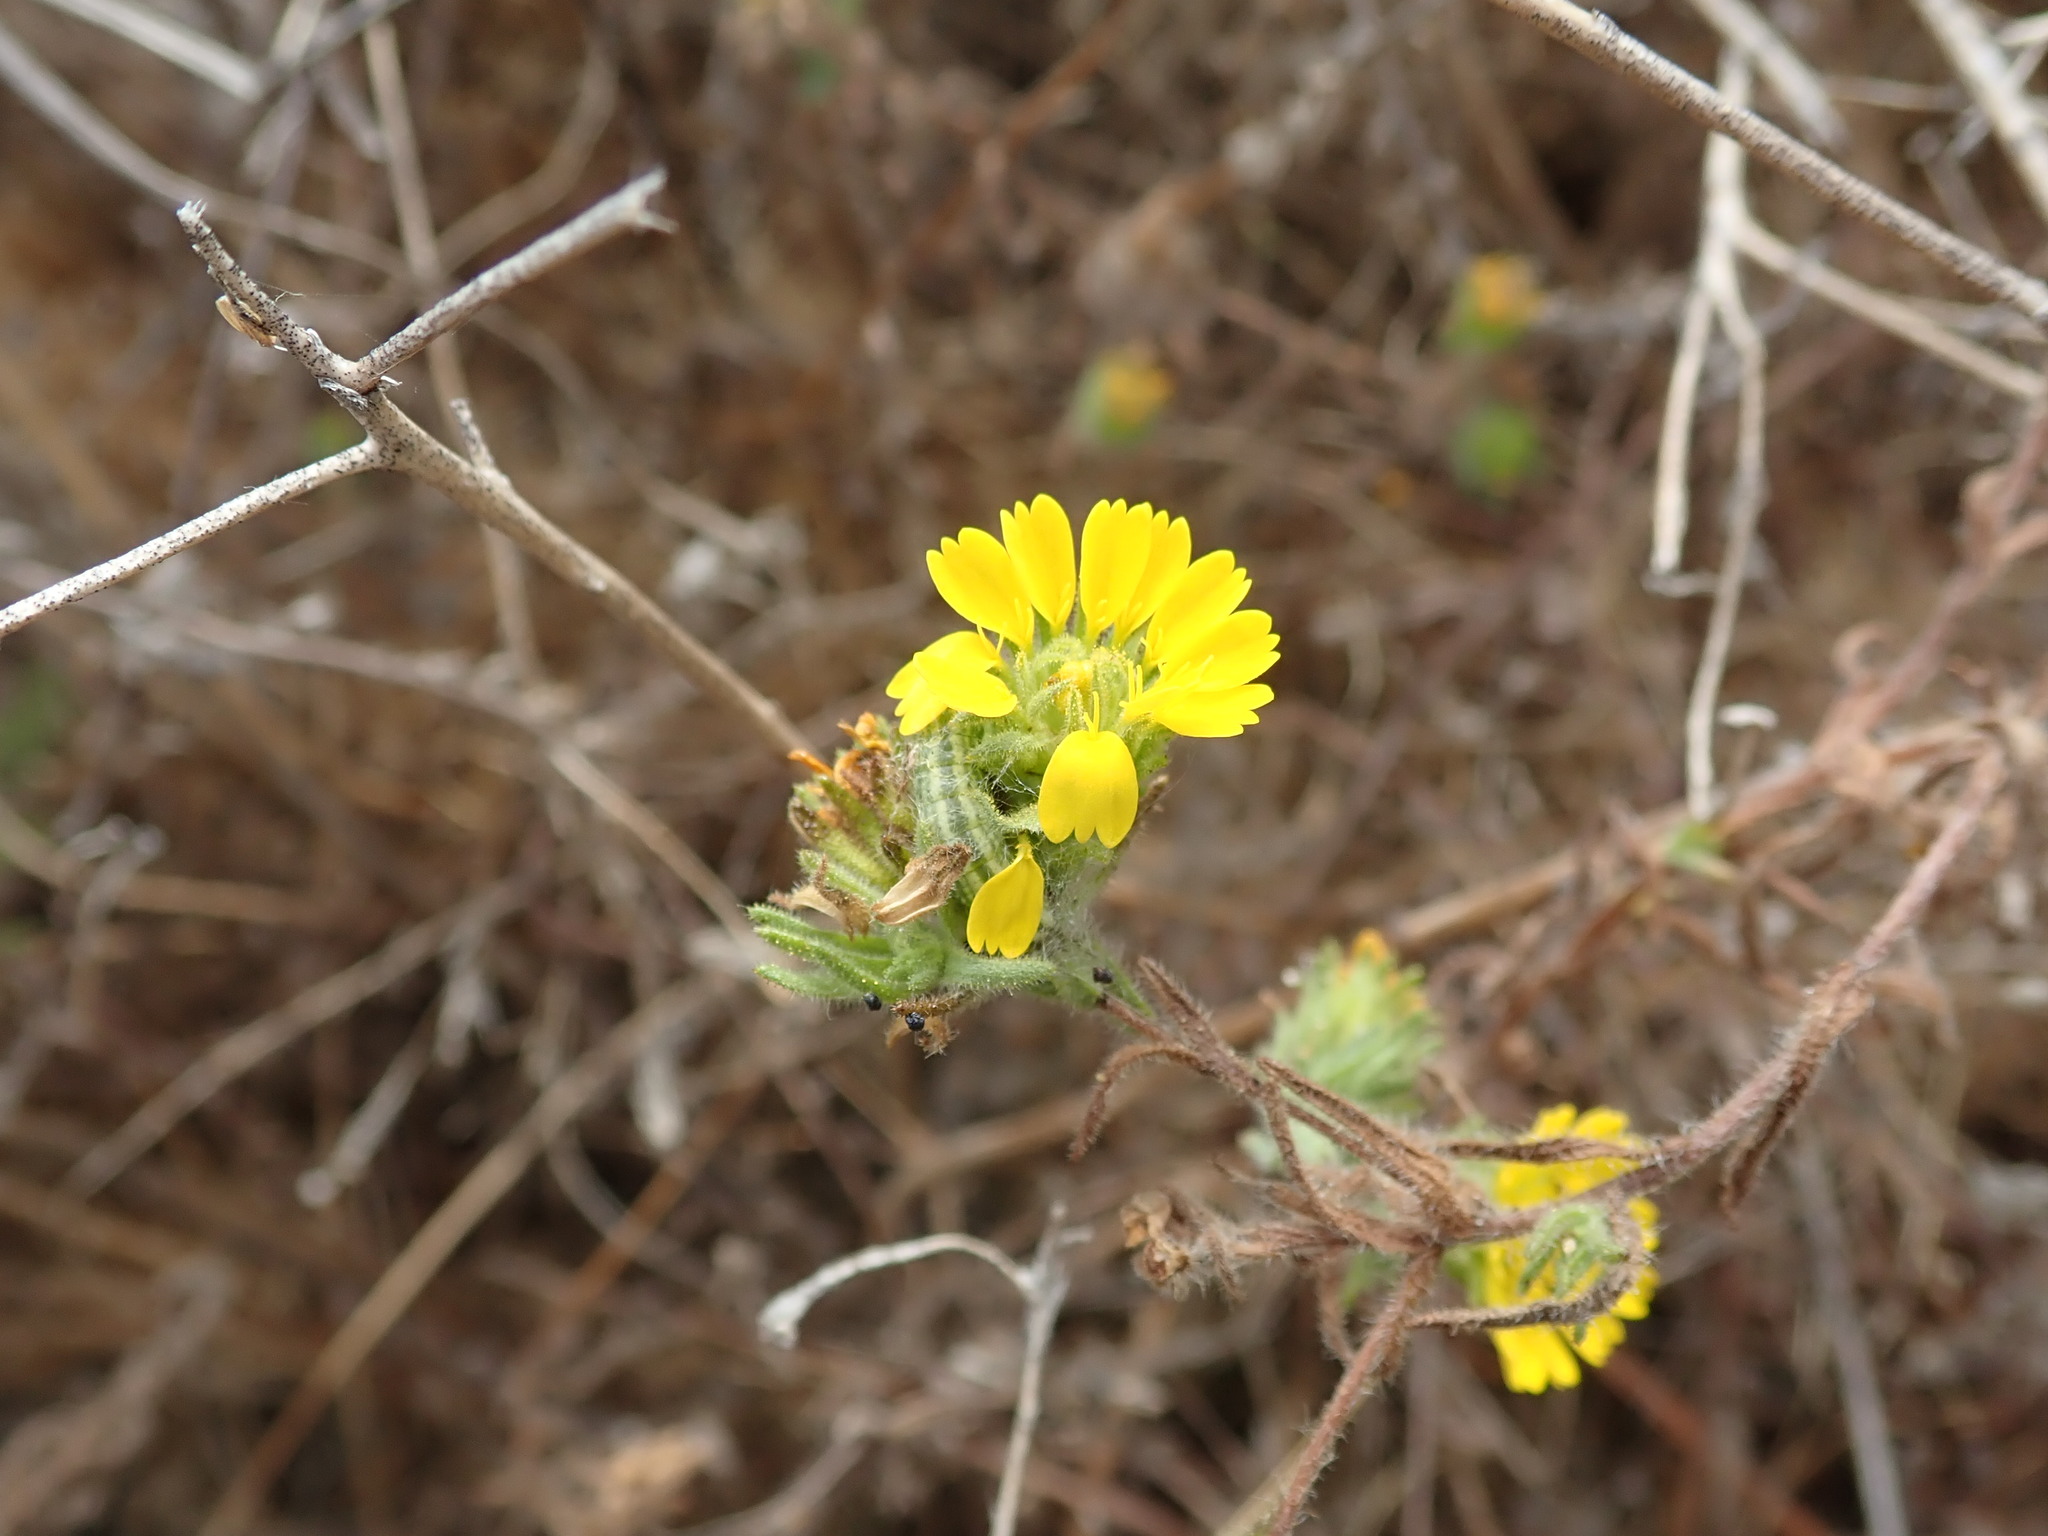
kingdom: Plantae
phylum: Tracheophyta
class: Magnoliopsida
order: Asterales
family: Asteraceae
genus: Deinandra
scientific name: Deinandra corymbosa
